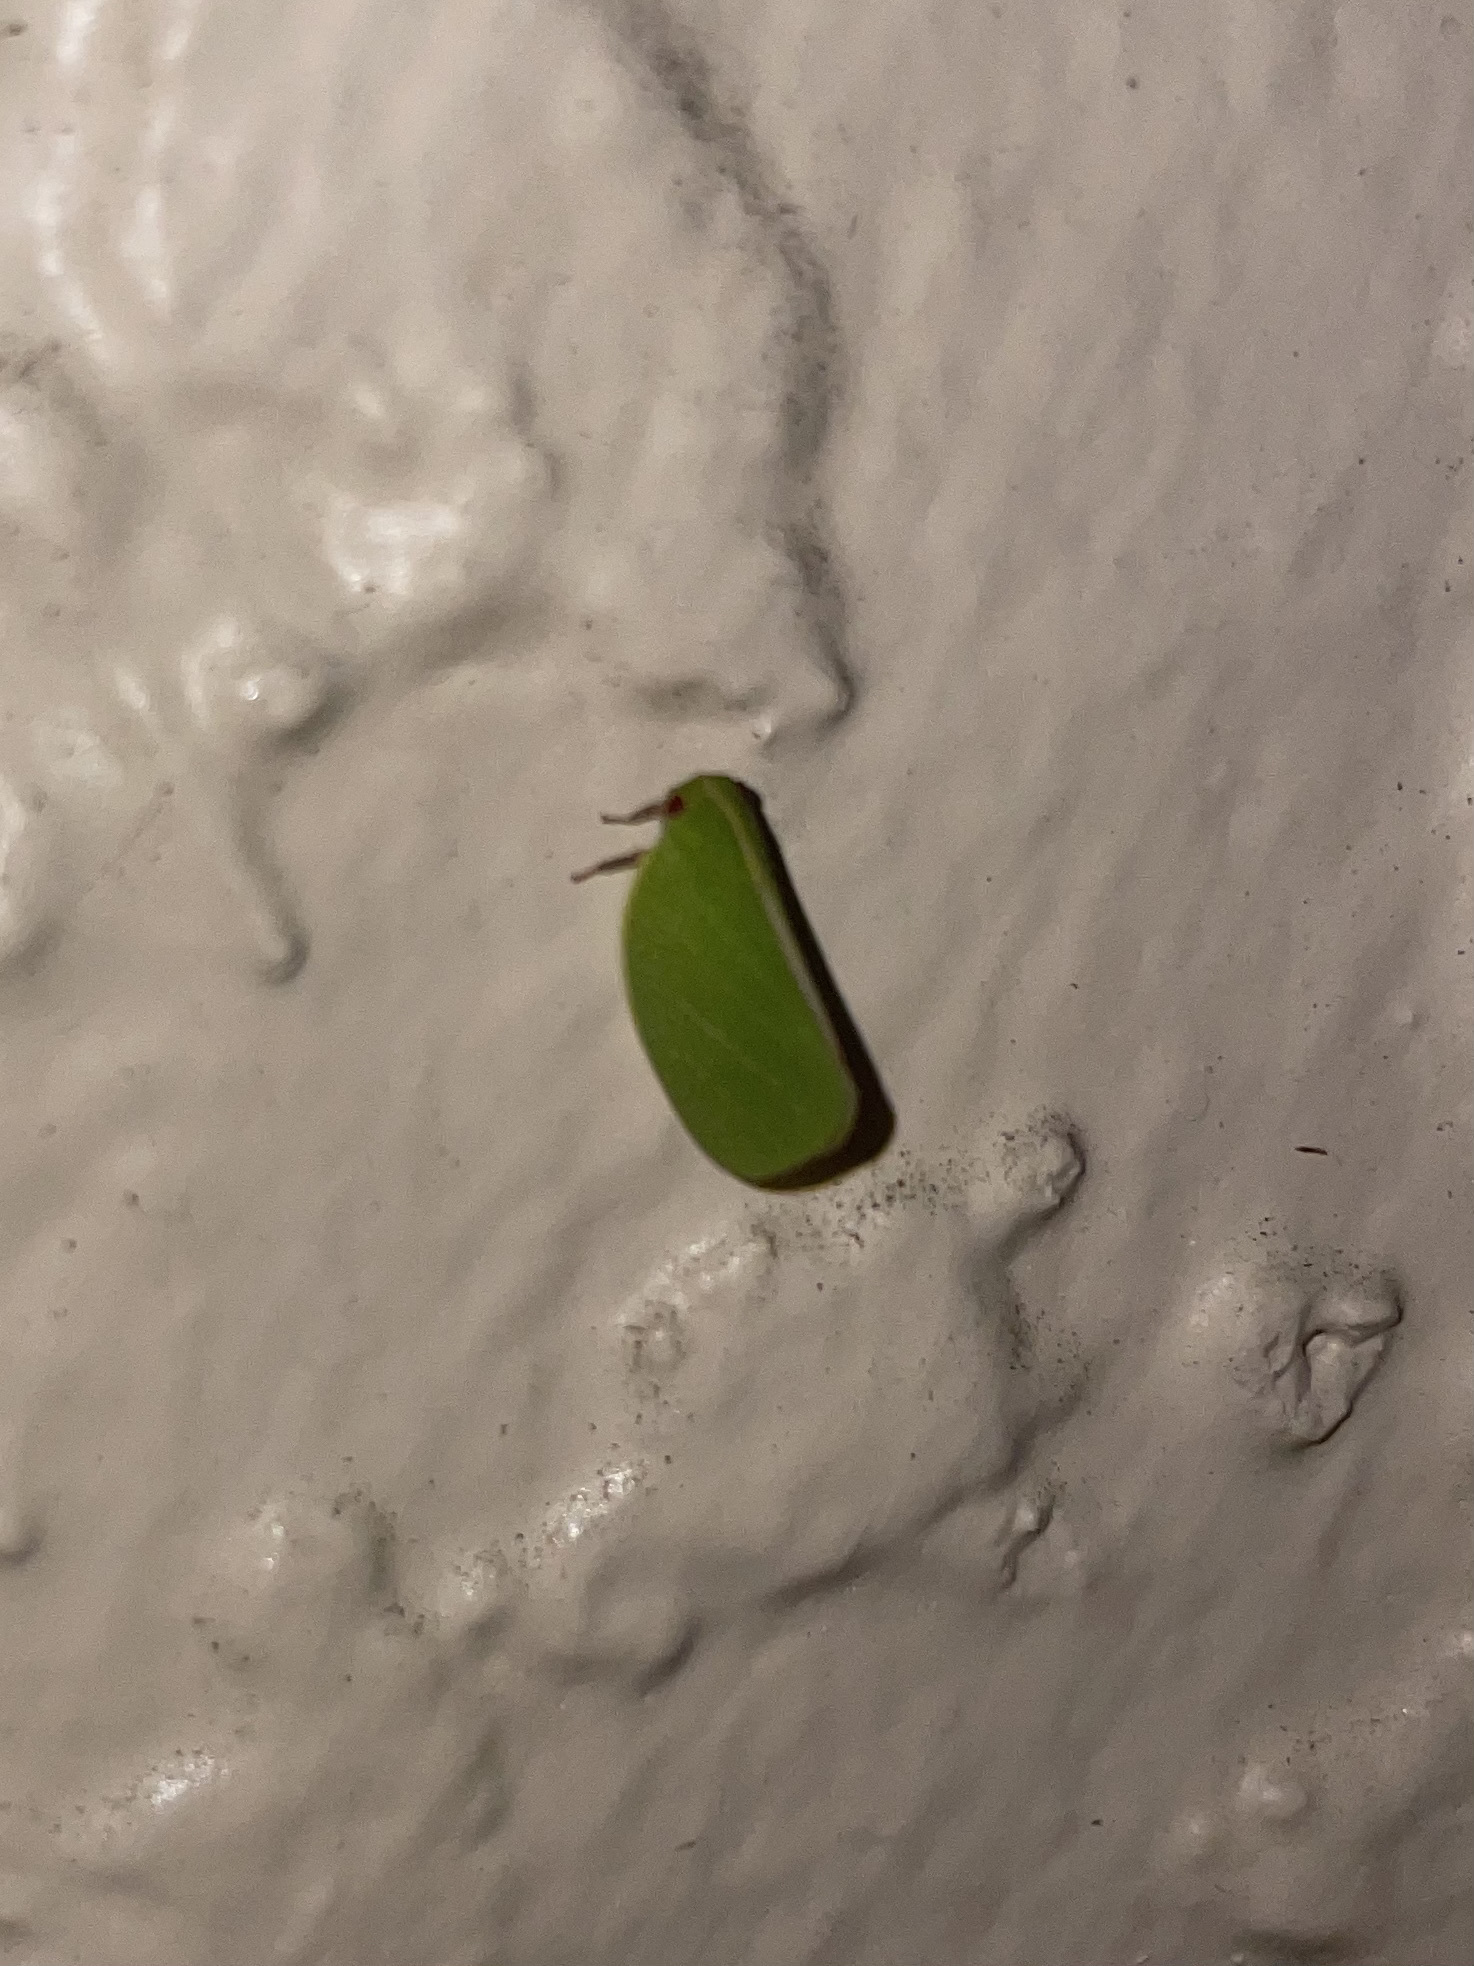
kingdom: Animalia
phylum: Arthropoda
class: Insecta
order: Hemiptera
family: Acanaloniidae
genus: Acanalonia
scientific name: Acanalonia servillei
